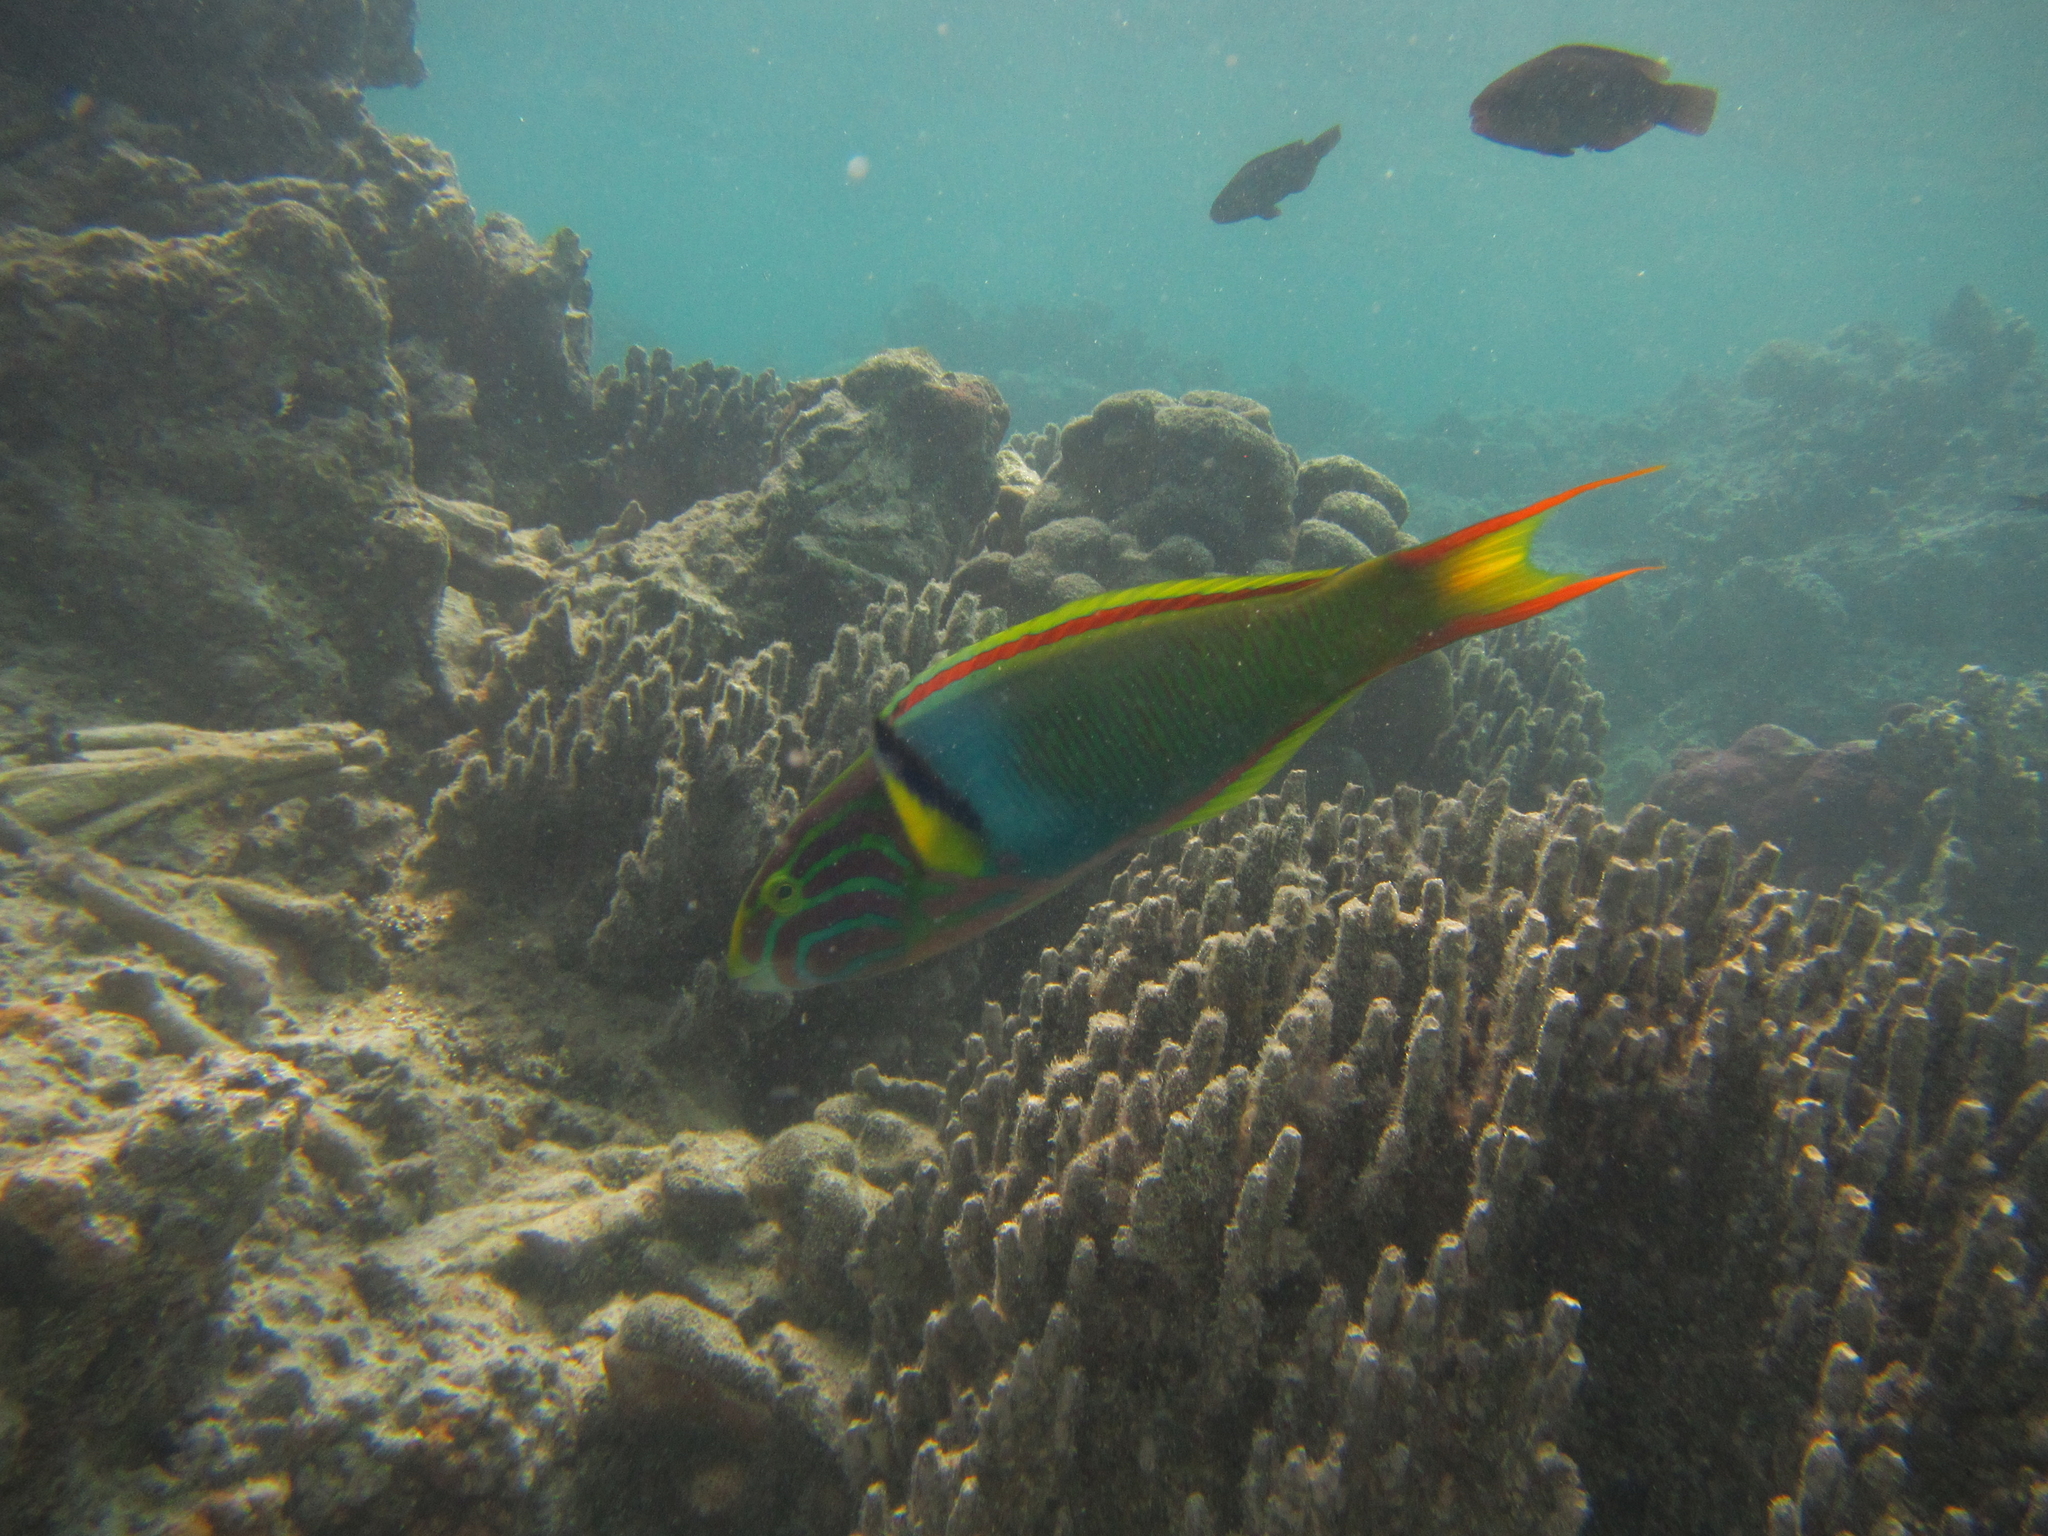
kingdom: Animalia
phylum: Chordata
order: Perciformes
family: Labridae
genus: Thalassoma
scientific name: Thalassoma lutescens
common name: Green moon wrasse
